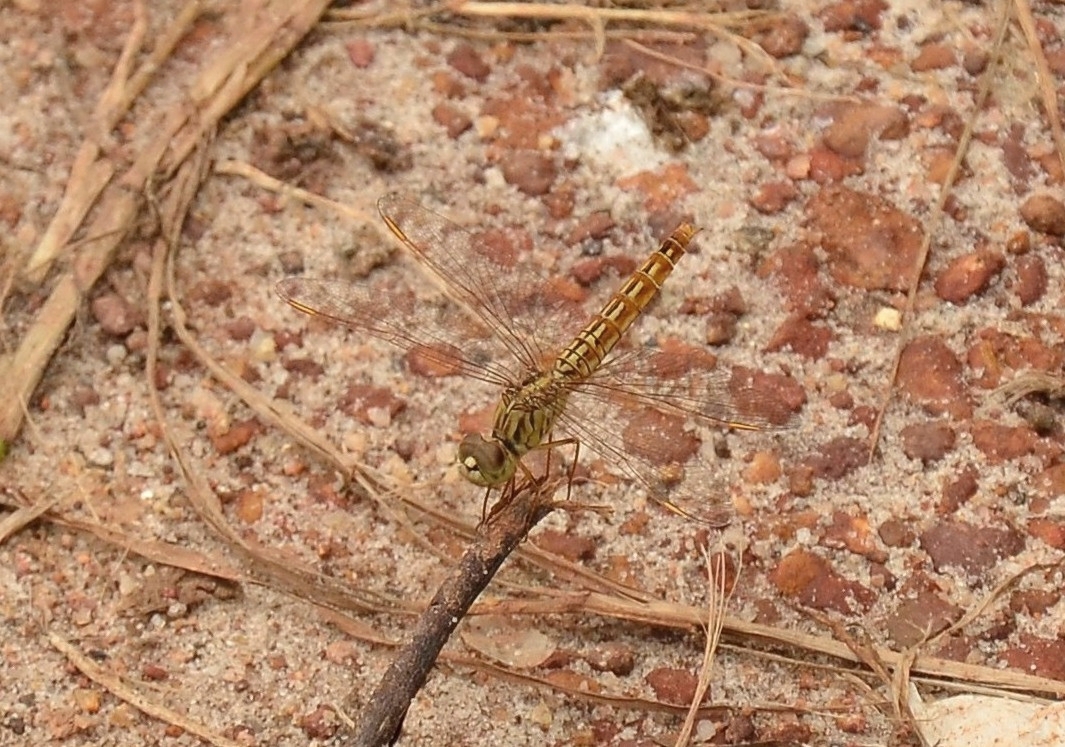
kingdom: Animalia
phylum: Arthropoda
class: Insecta
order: Odonata
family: Libellulidae
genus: Brachythemis
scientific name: Brachythemis contaminata
